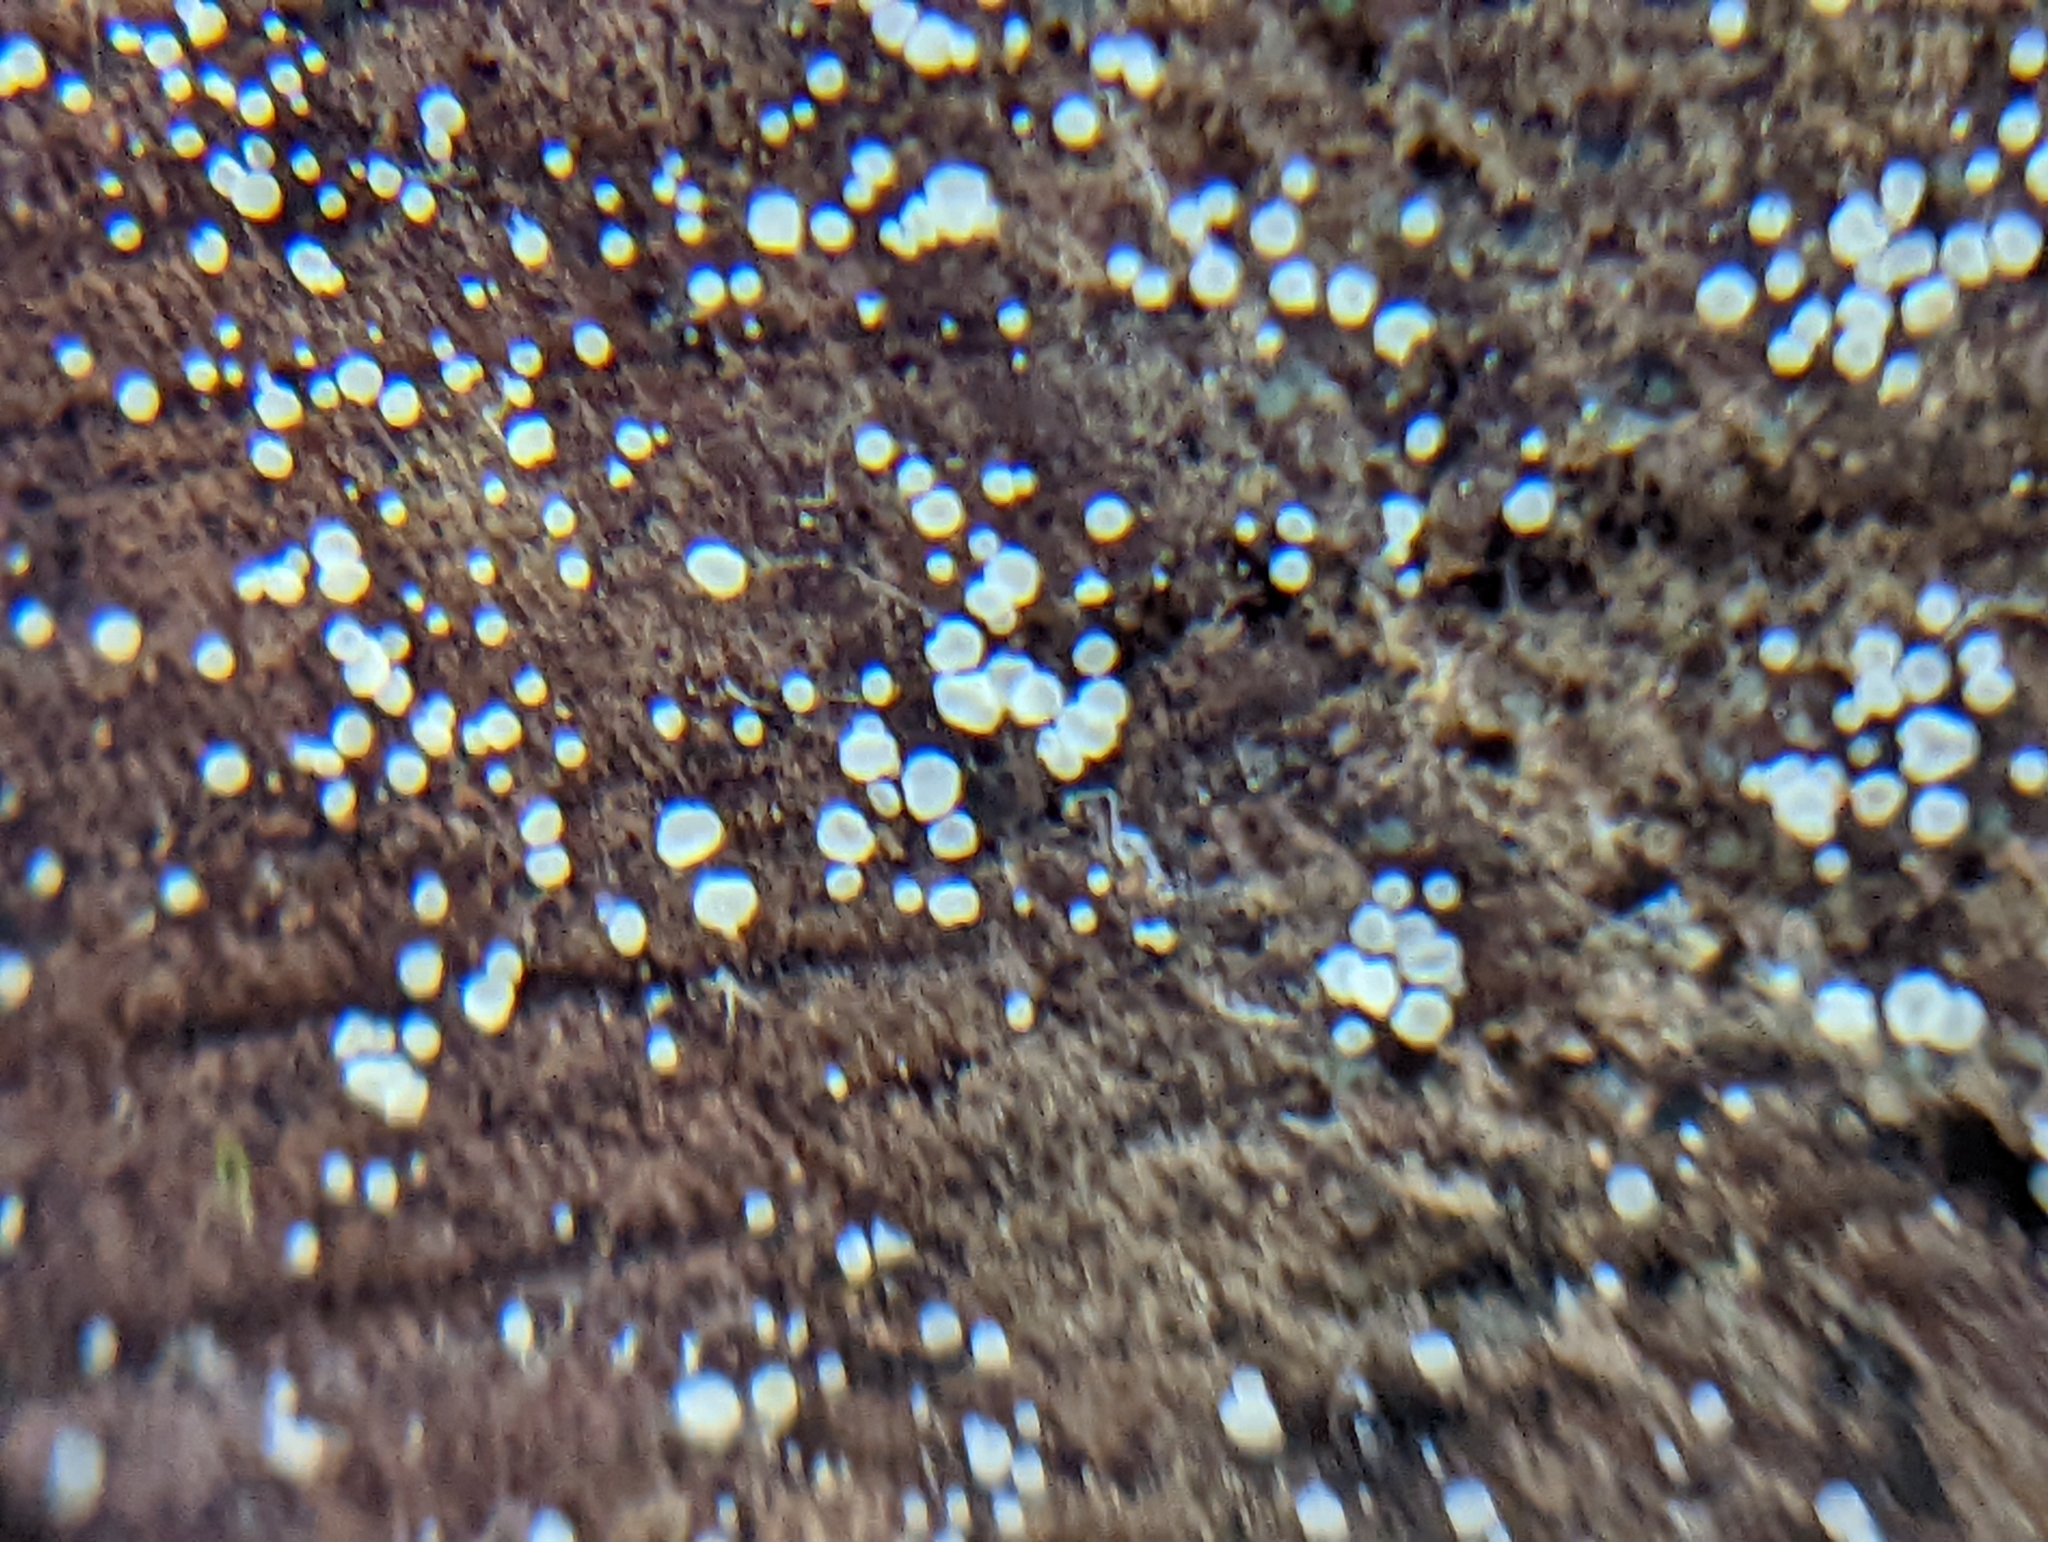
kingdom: Fungi
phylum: Ascomycota
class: Leotiomycetes
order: Helotiales
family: Lachnaceae
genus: Lachnum
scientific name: Lachnum virgineum
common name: Snowy disco
